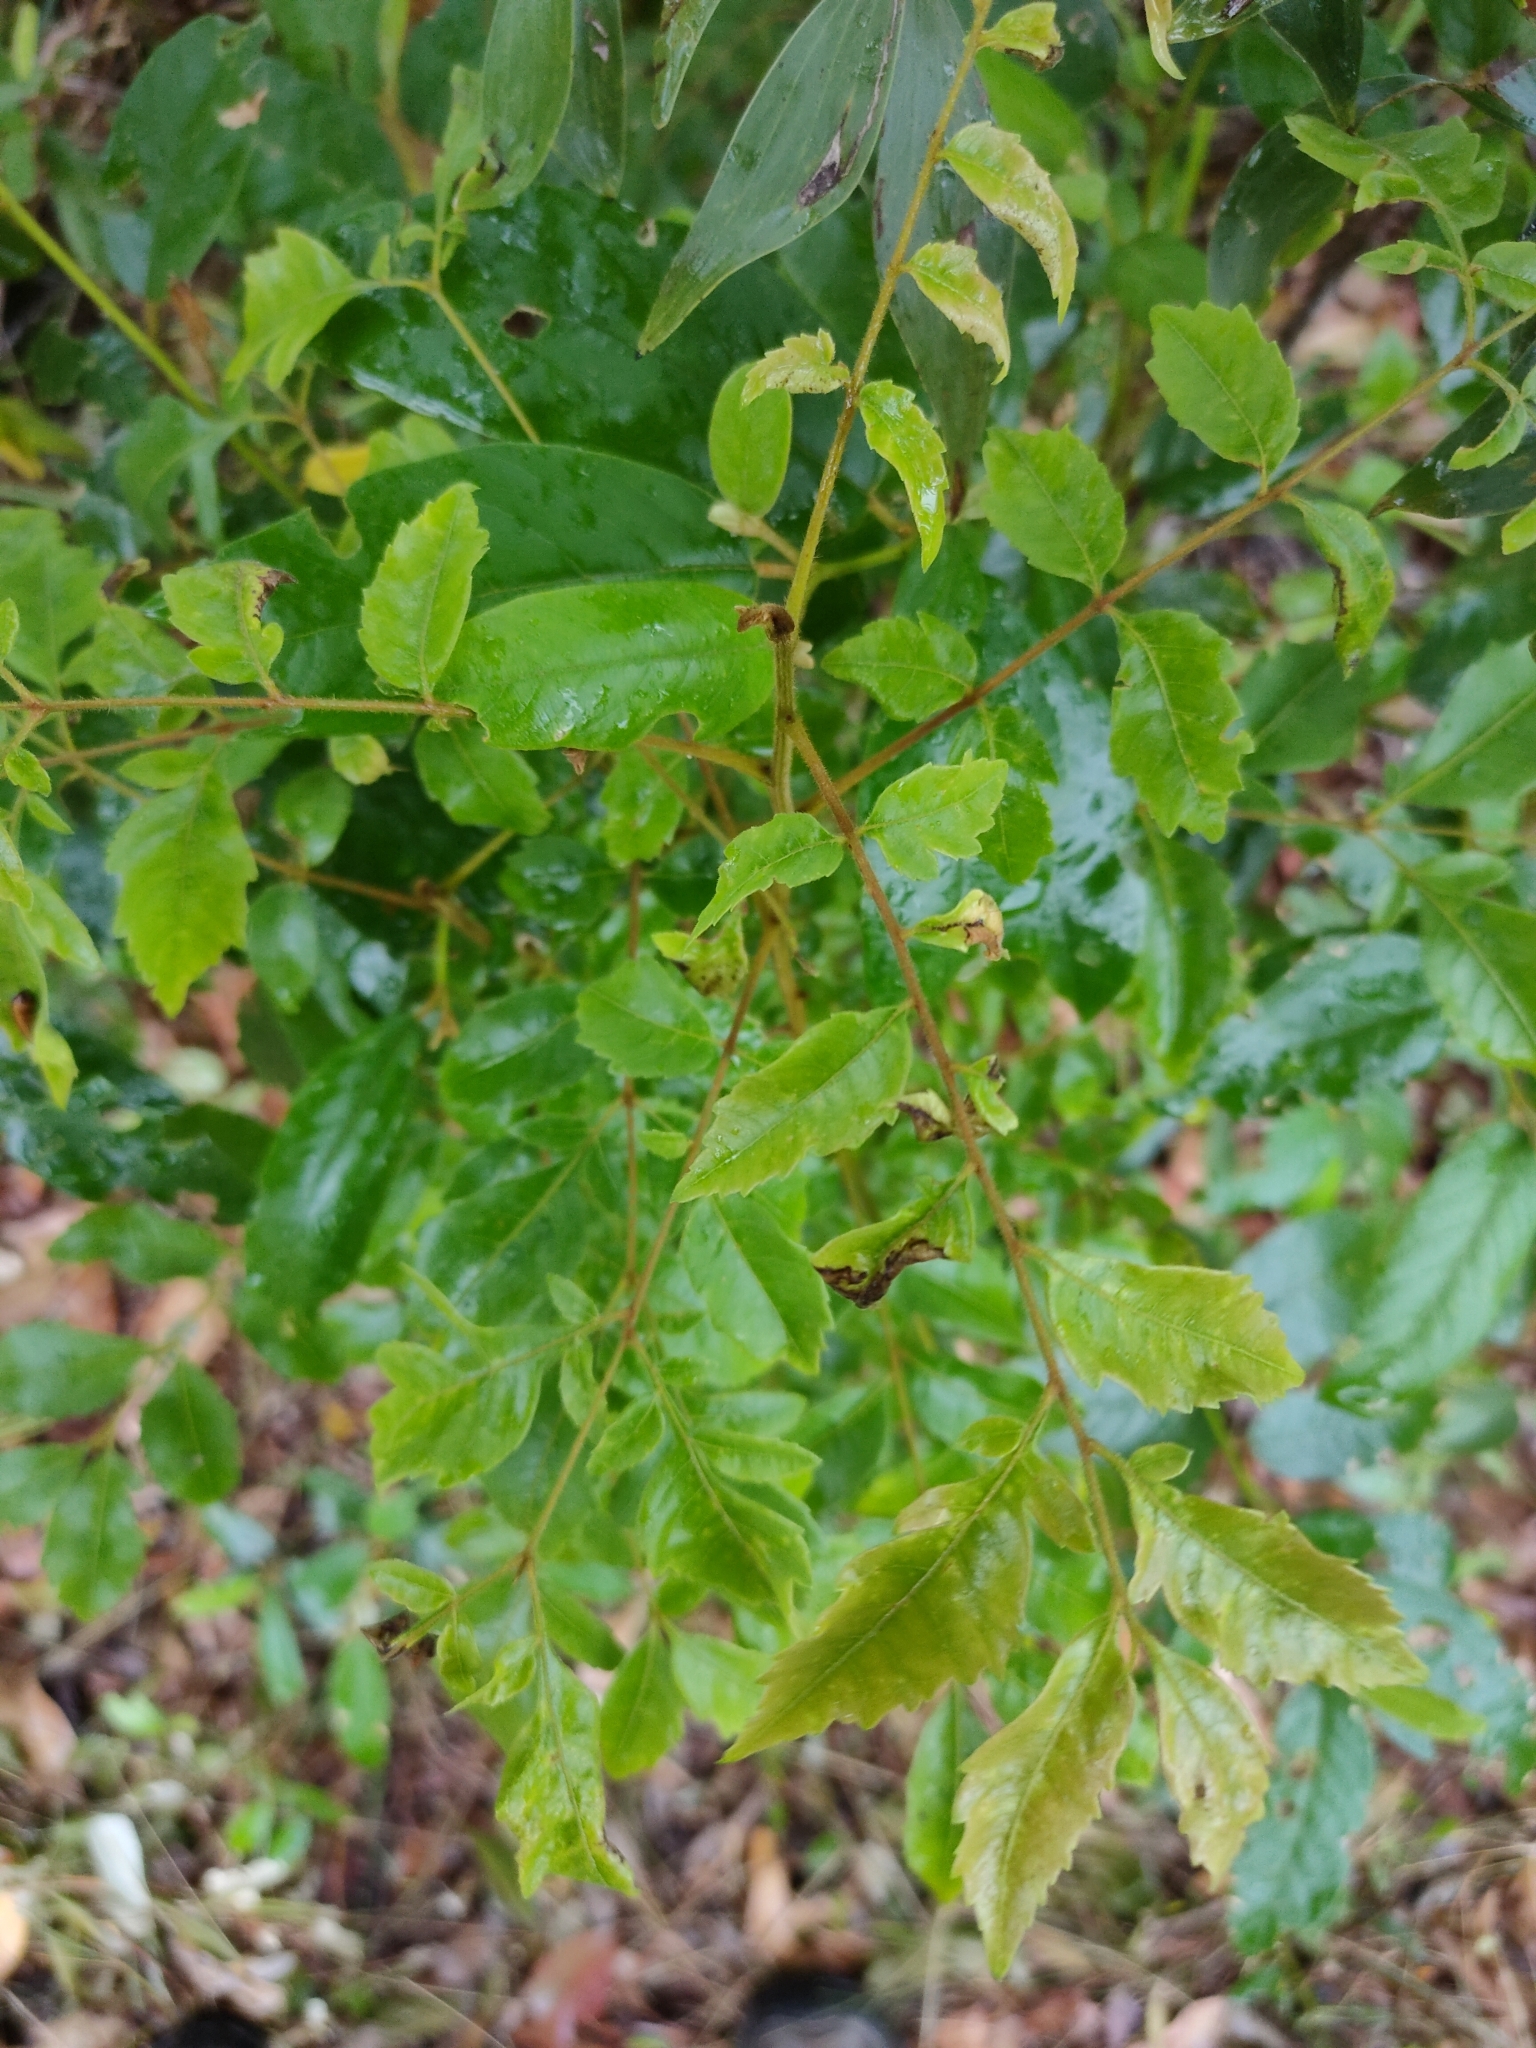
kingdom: Plantae
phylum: Tracheophyta
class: Magnoliopsida
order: Sapindales
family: Sapindaceae
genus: Jagera
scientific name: Jagera pseudorhus
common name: Fern-leaf-tamarind
